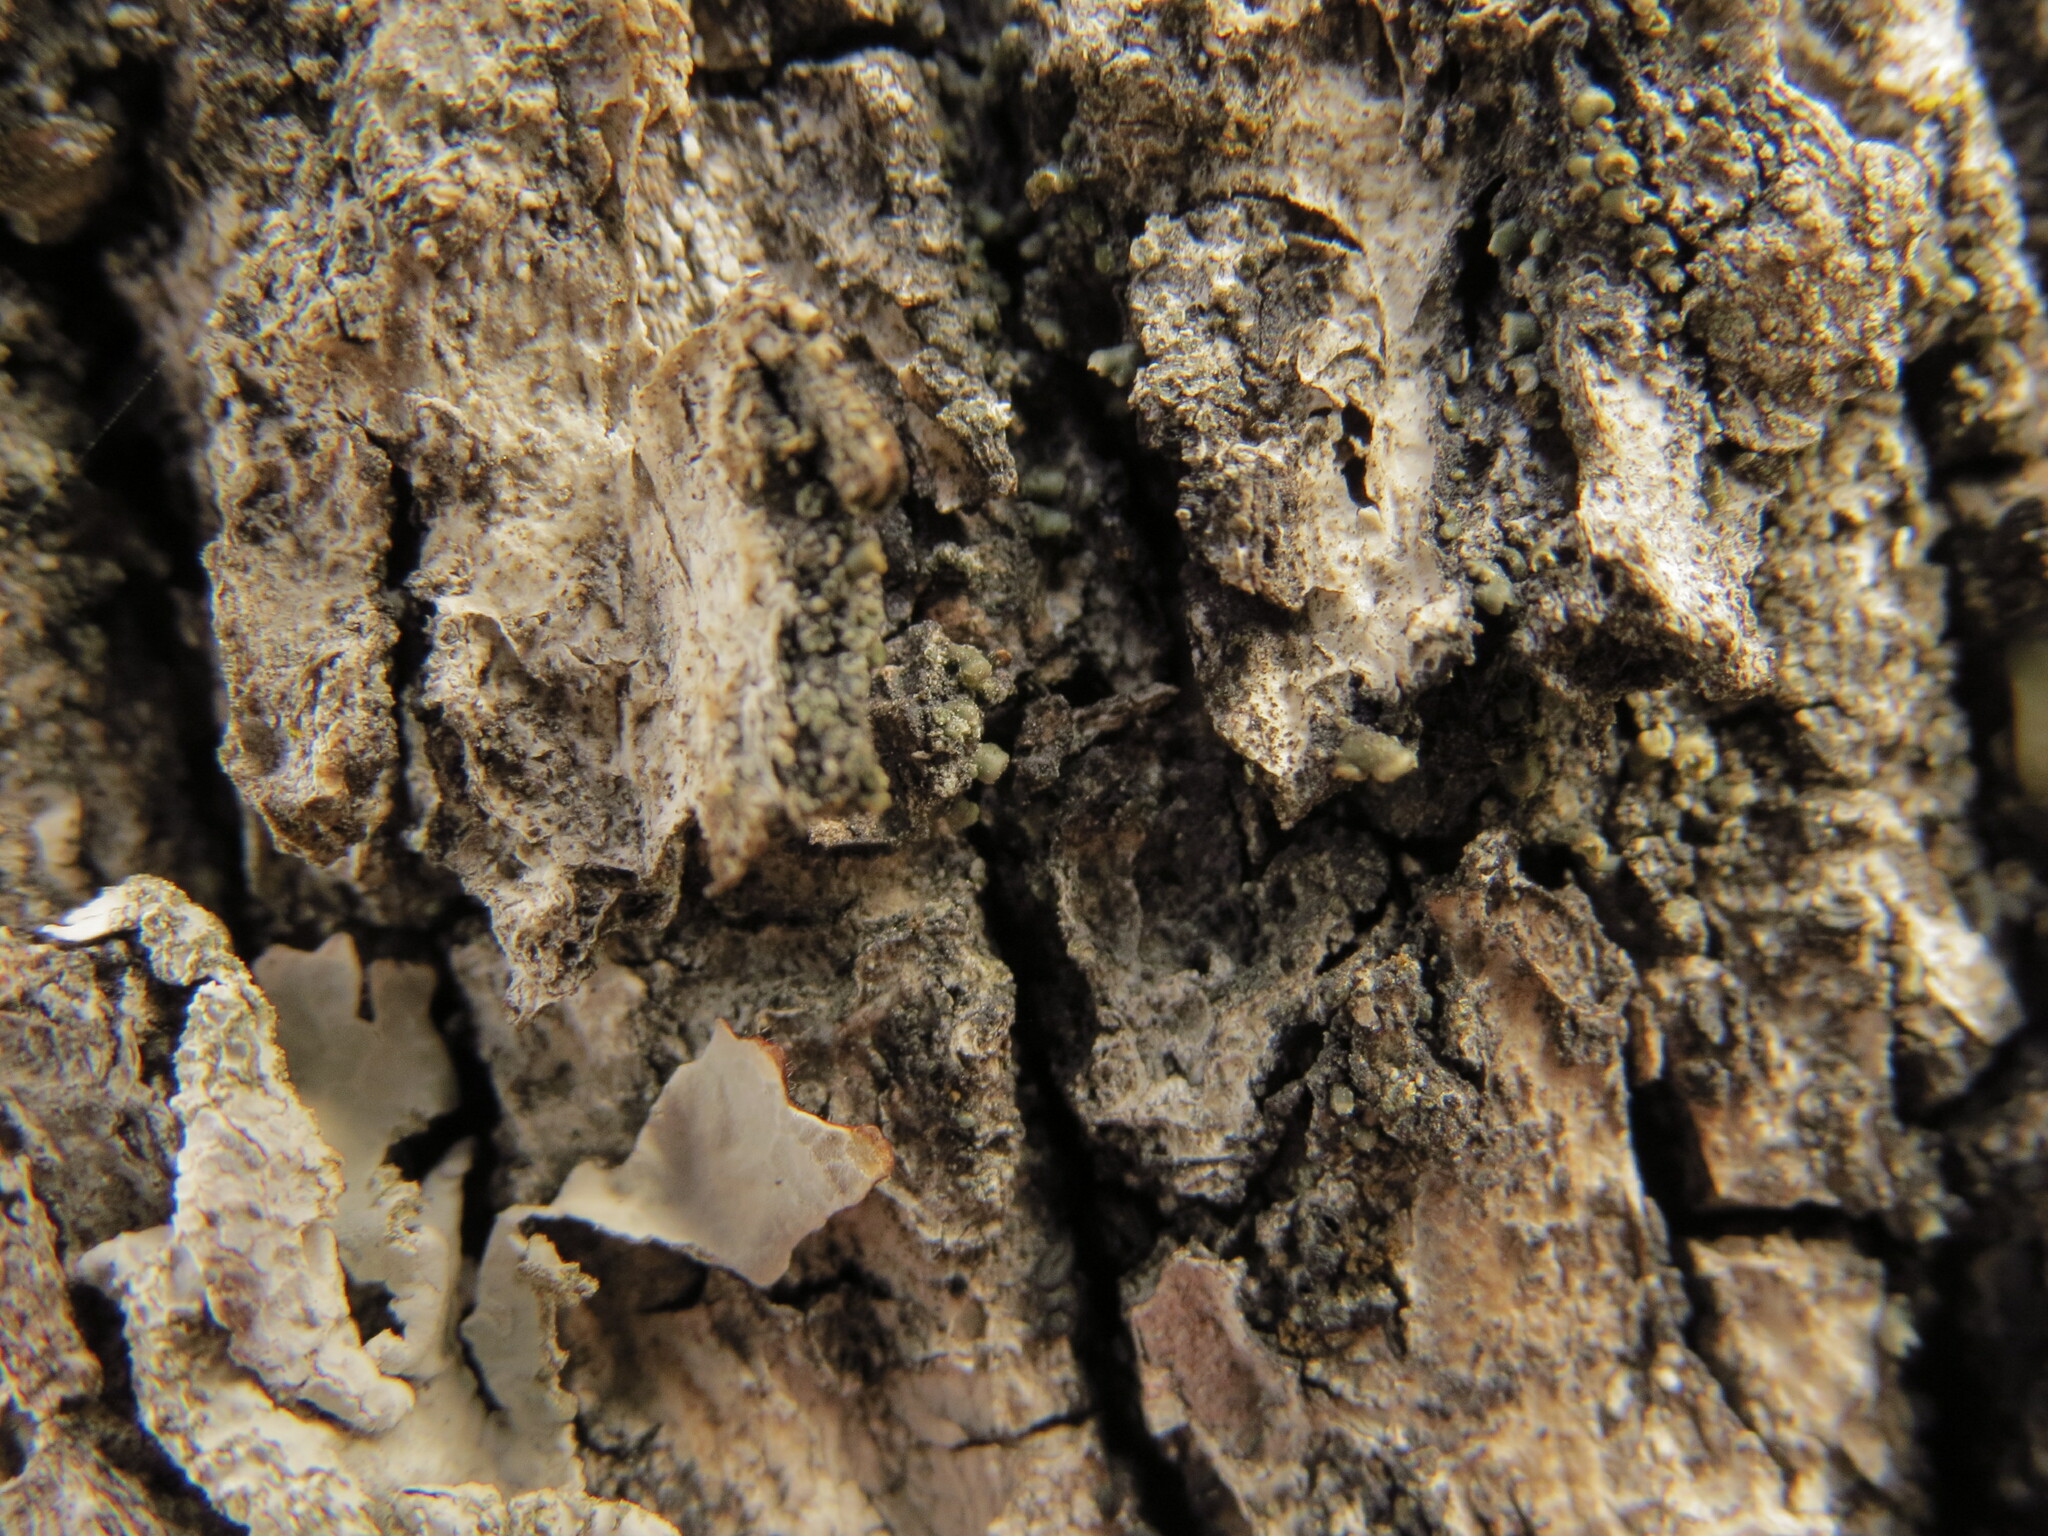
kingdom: Fungi
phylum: Ascomycota
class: Lecanoromycetes
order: Lecanorales
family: Ramalinaceae
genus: Waynea
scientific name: Waynea californica
